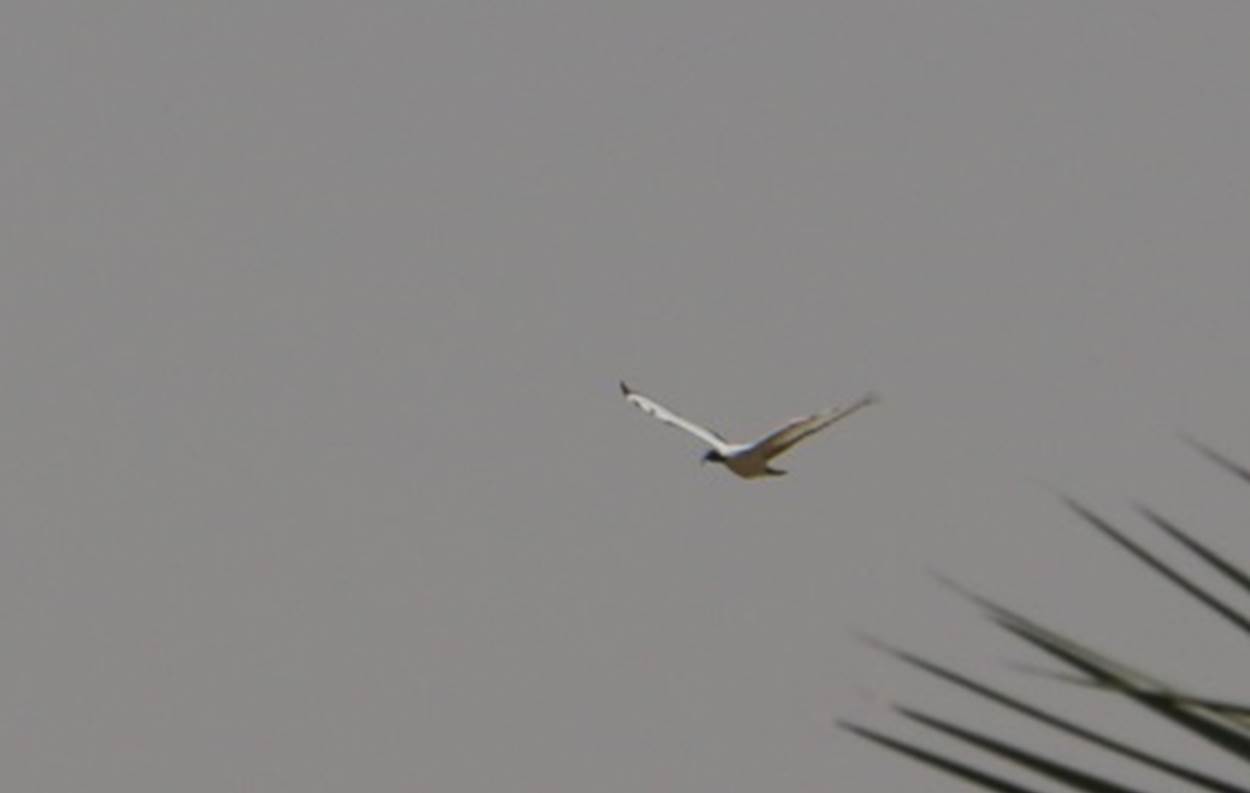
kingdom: Animalia
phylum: Chordata
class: Aves
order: Pelecaniformes
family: Threskiornithidae
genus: Threskiornis
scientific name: Threskiornis aethiopicus
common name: Sacred ibis
